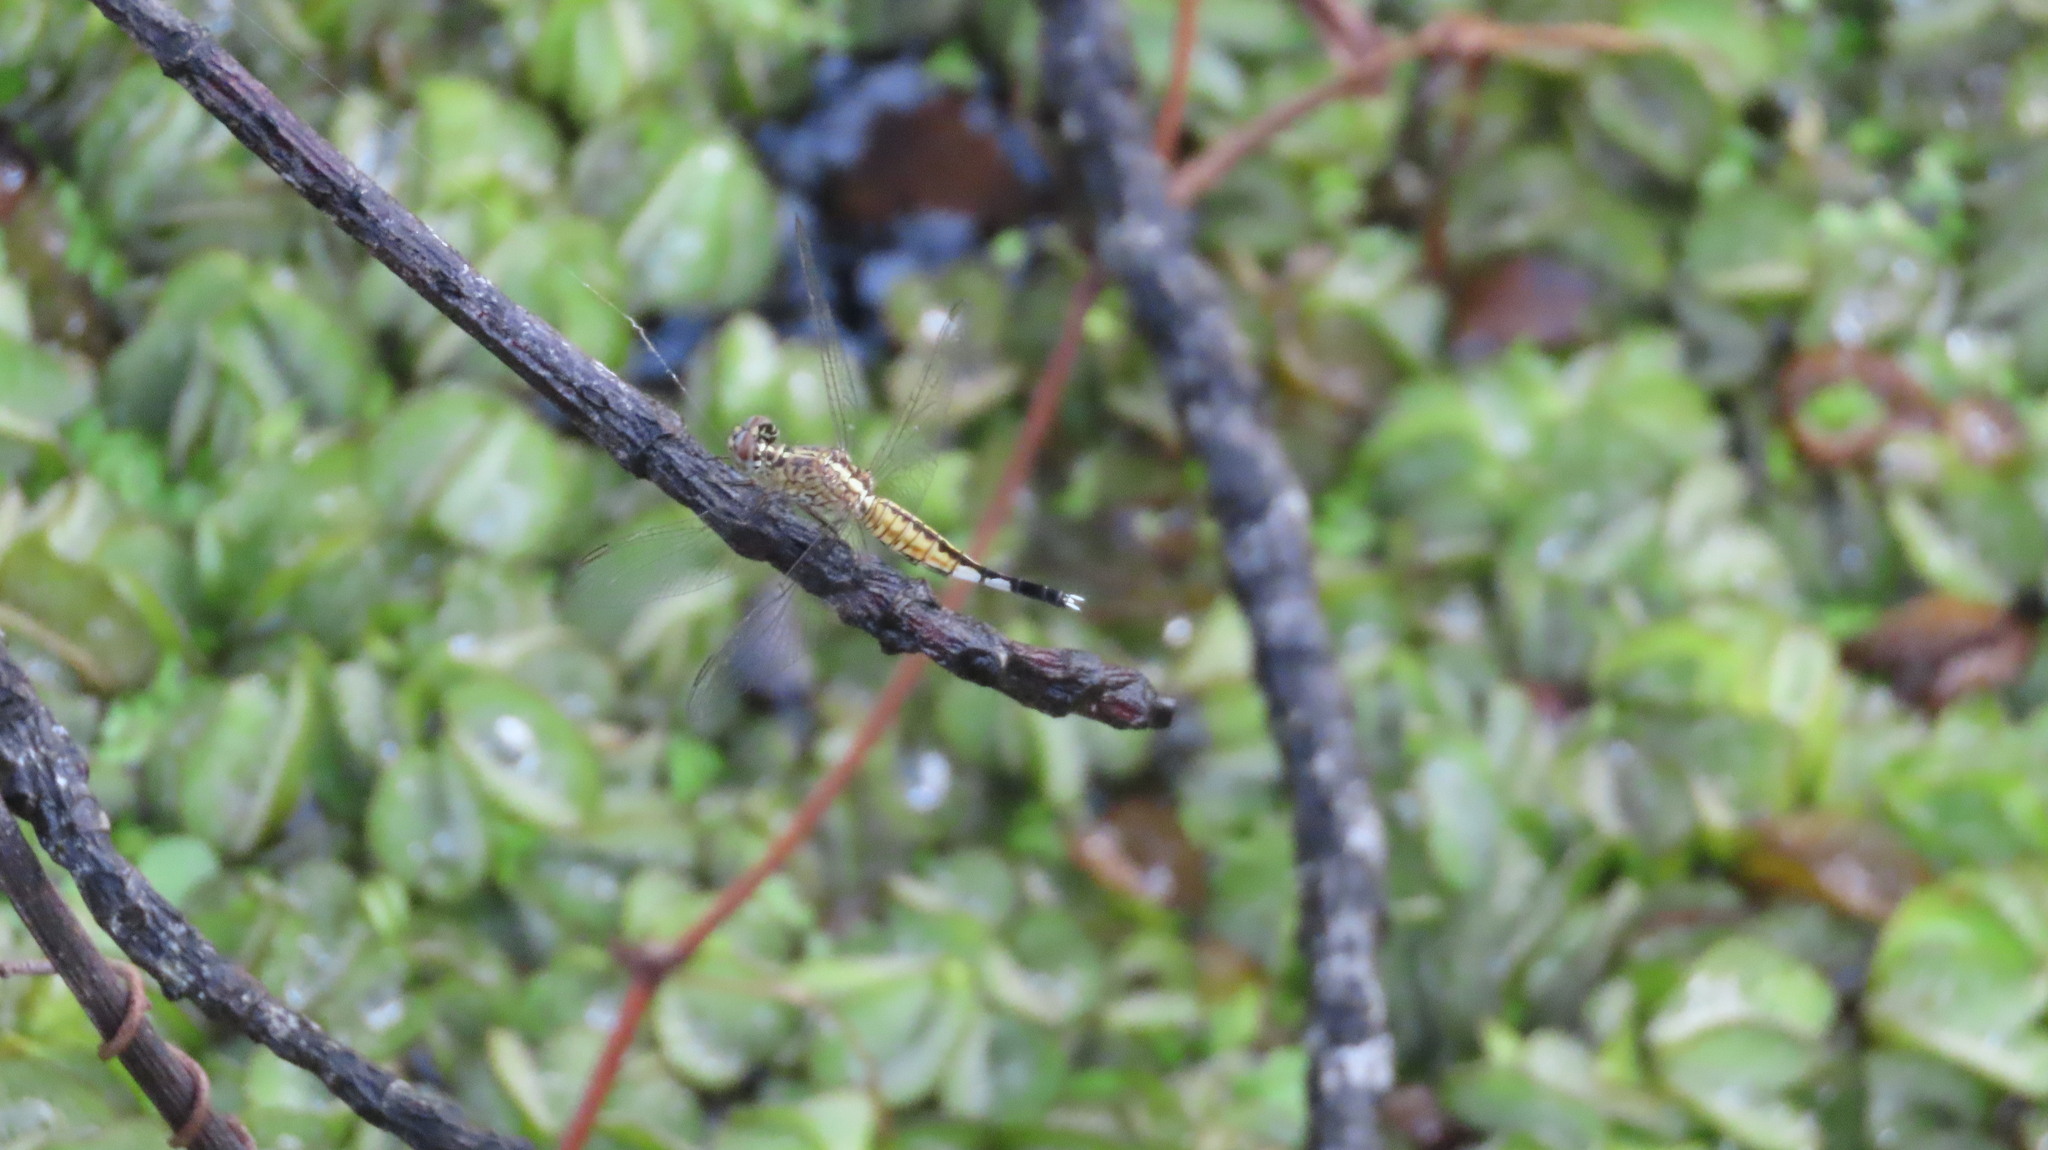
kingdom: Animalia
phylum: Arthropoda
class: Insecta
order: Odonata
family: Libellulidae
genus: Acisoma
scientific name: Acisoma panorpoides
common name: Asian pintail
